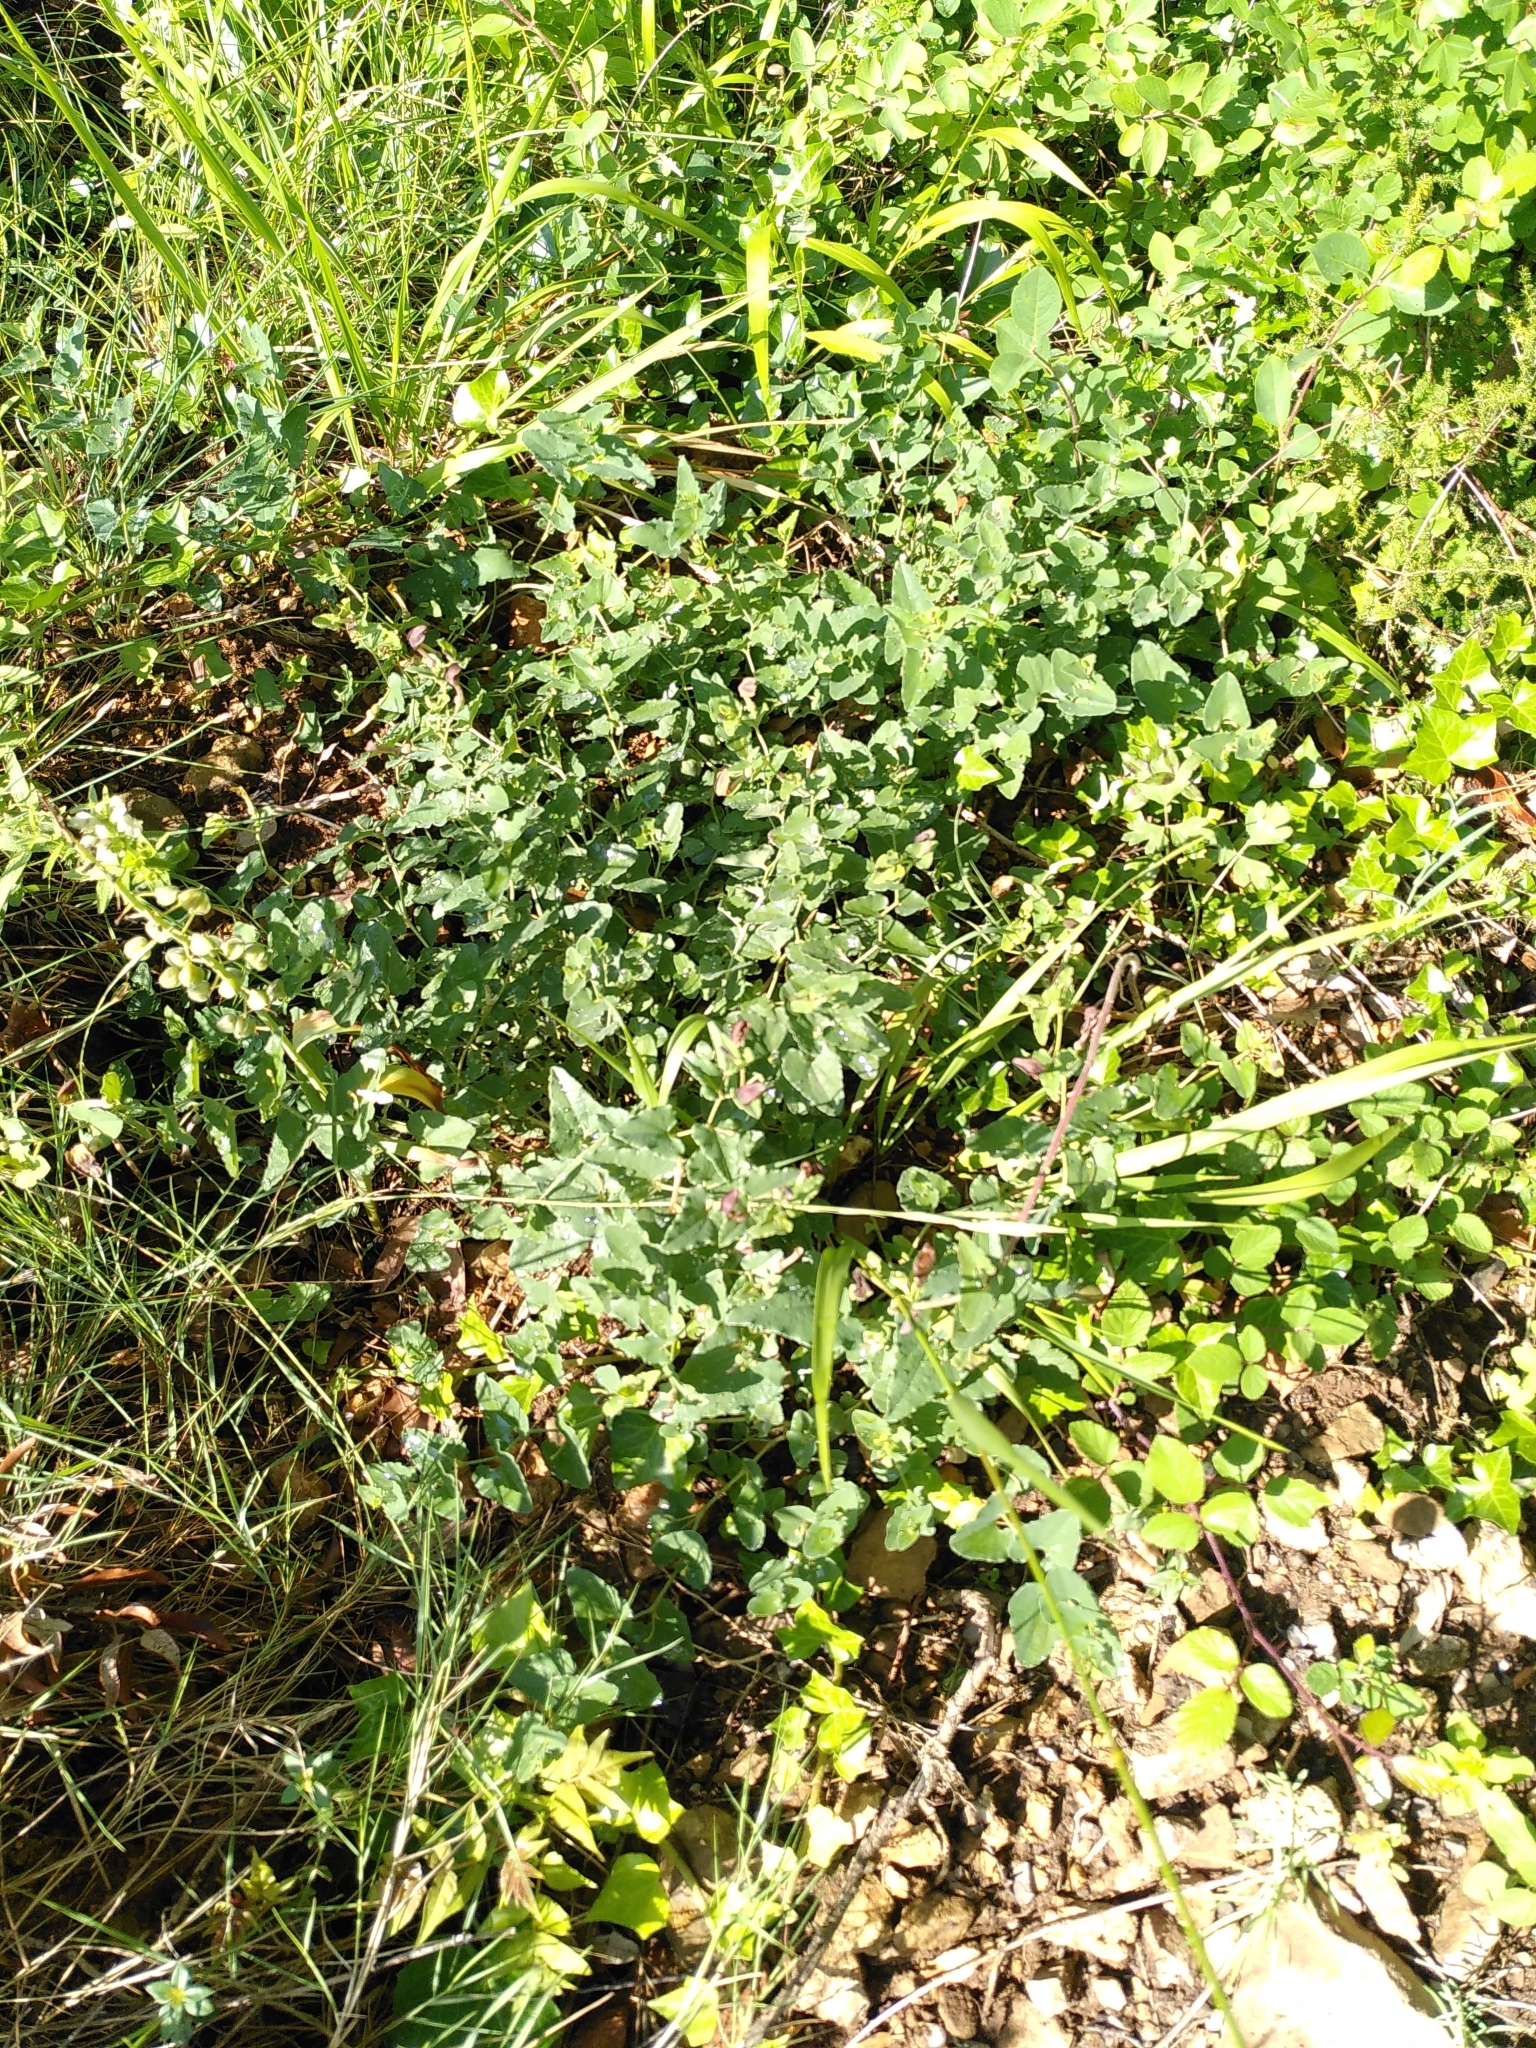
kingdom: Plantae
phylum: Tracheophyta
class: Magnoliopsida
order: Piperales
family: Aristolochiaceae
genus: Aristolochia
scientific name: Aristolochia pistolochia
